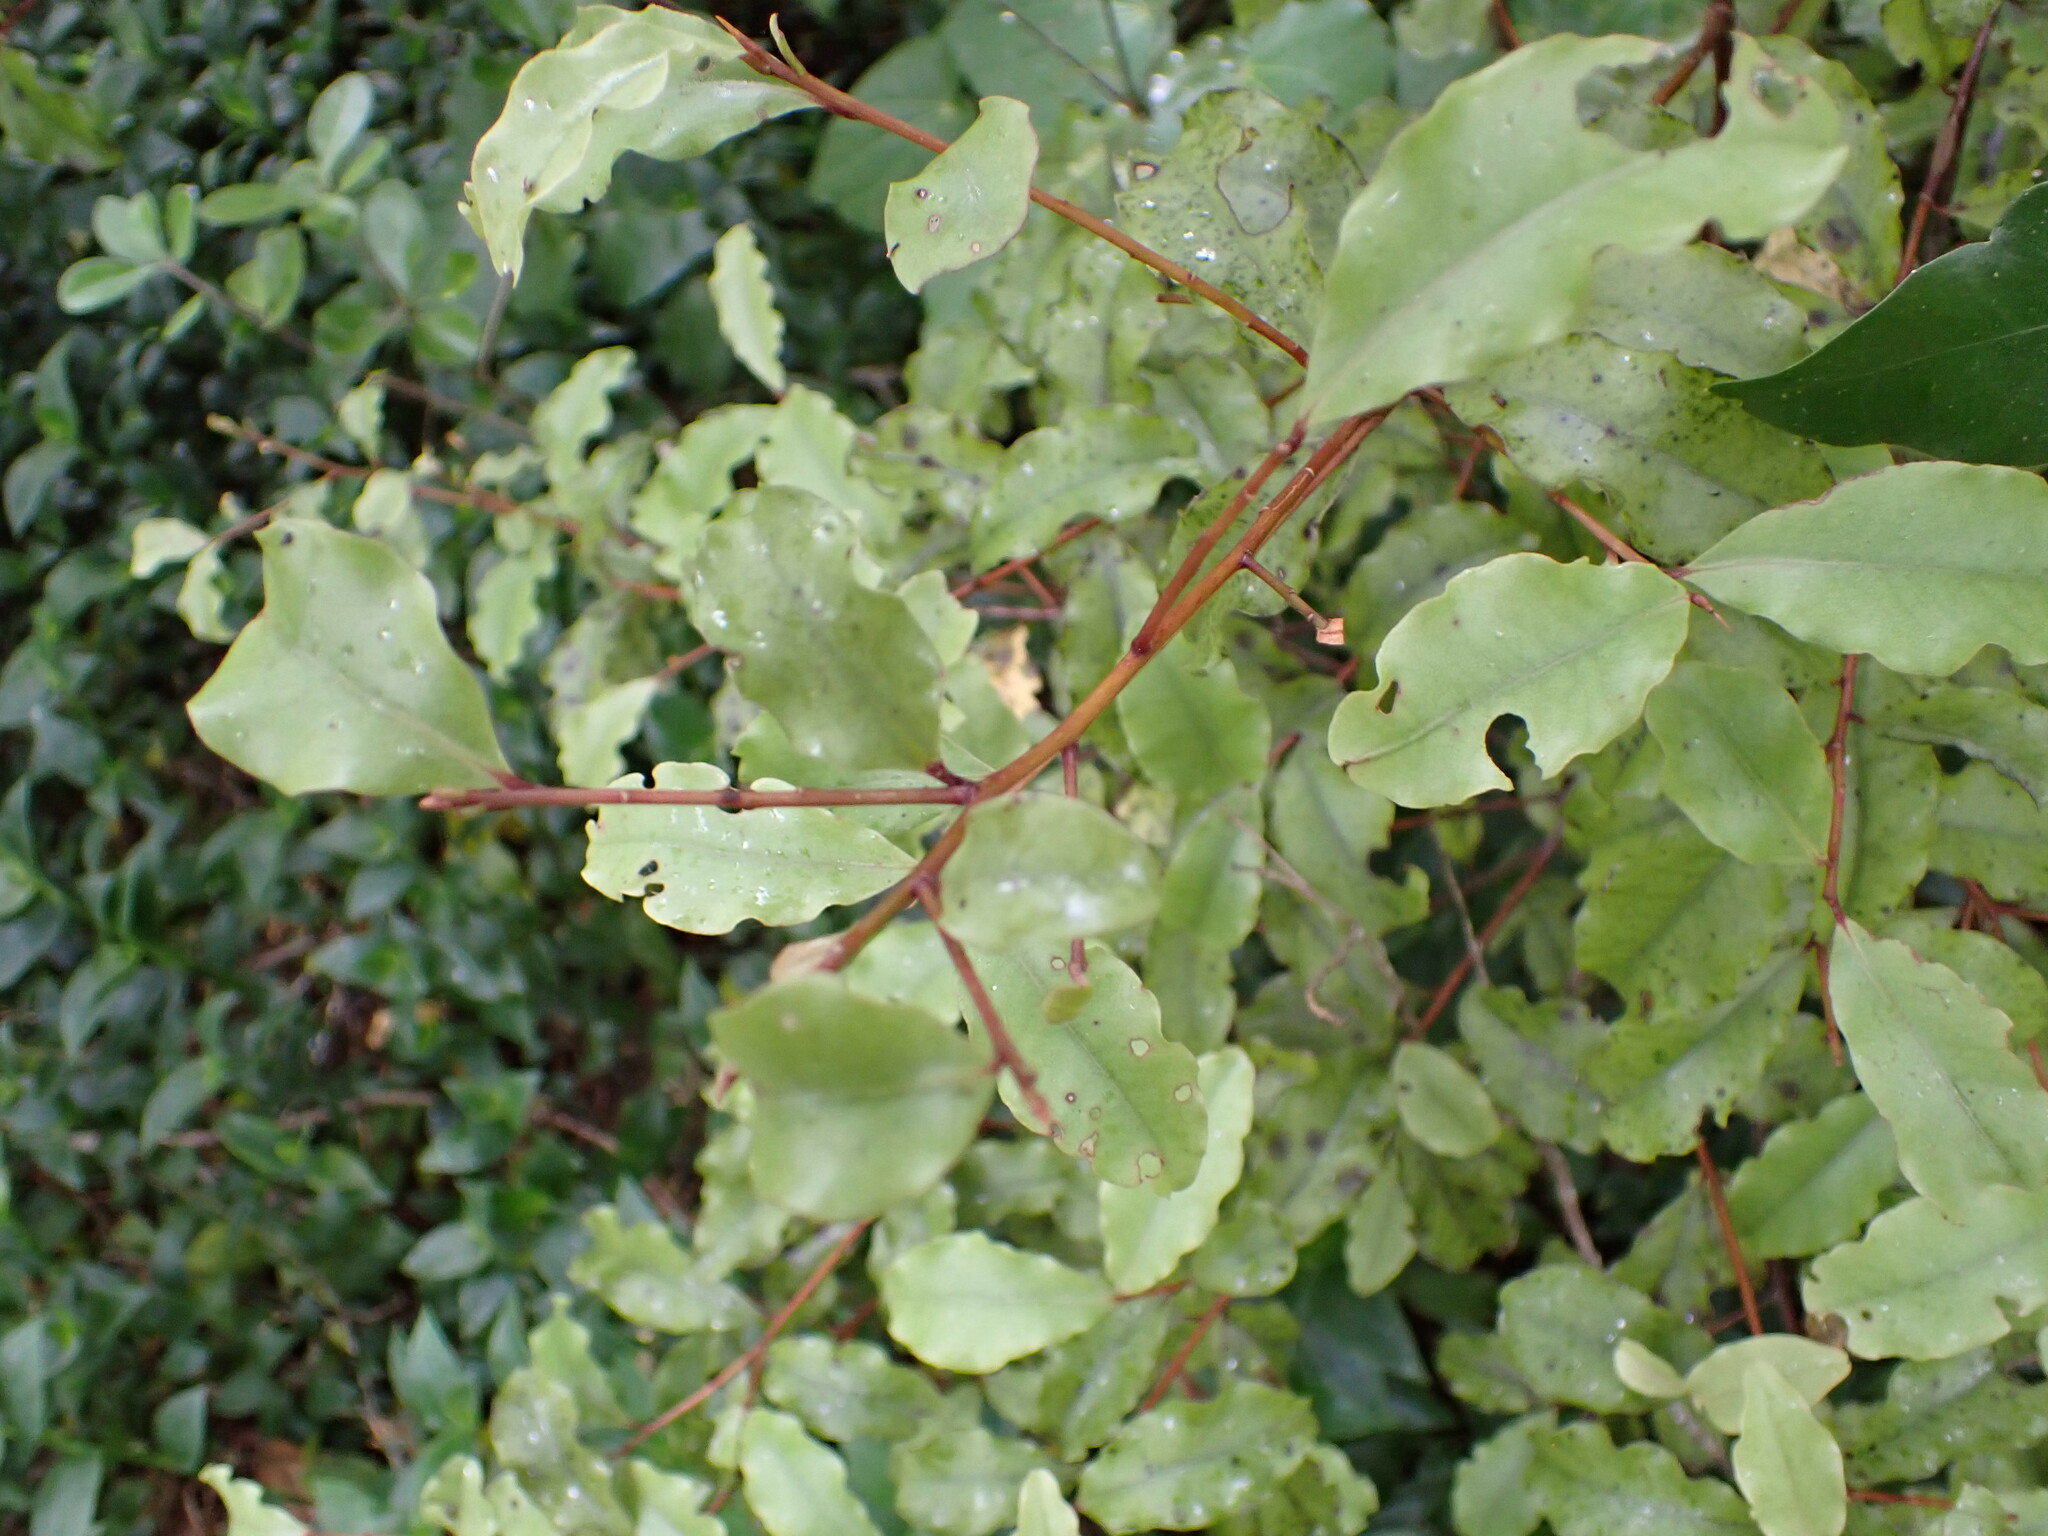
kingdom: Plantae
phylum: Tracheophyta
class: Magnoliopsida
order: Ericales
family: Primulaceae
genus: Myrsine
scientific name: Myrsine australis
